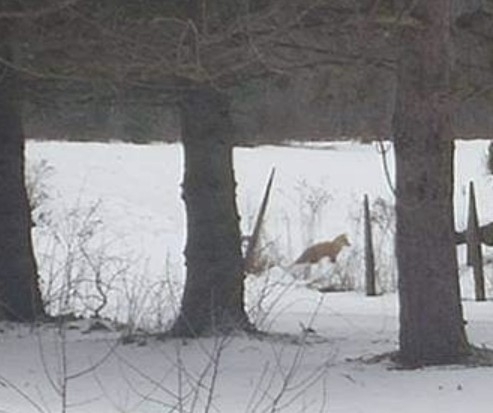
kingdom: Animalia
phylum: Chordata
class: Mammalia
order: Carnivora
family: Canidae
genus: Vulpes
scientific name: Vulpes vulpes
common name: Red fox
